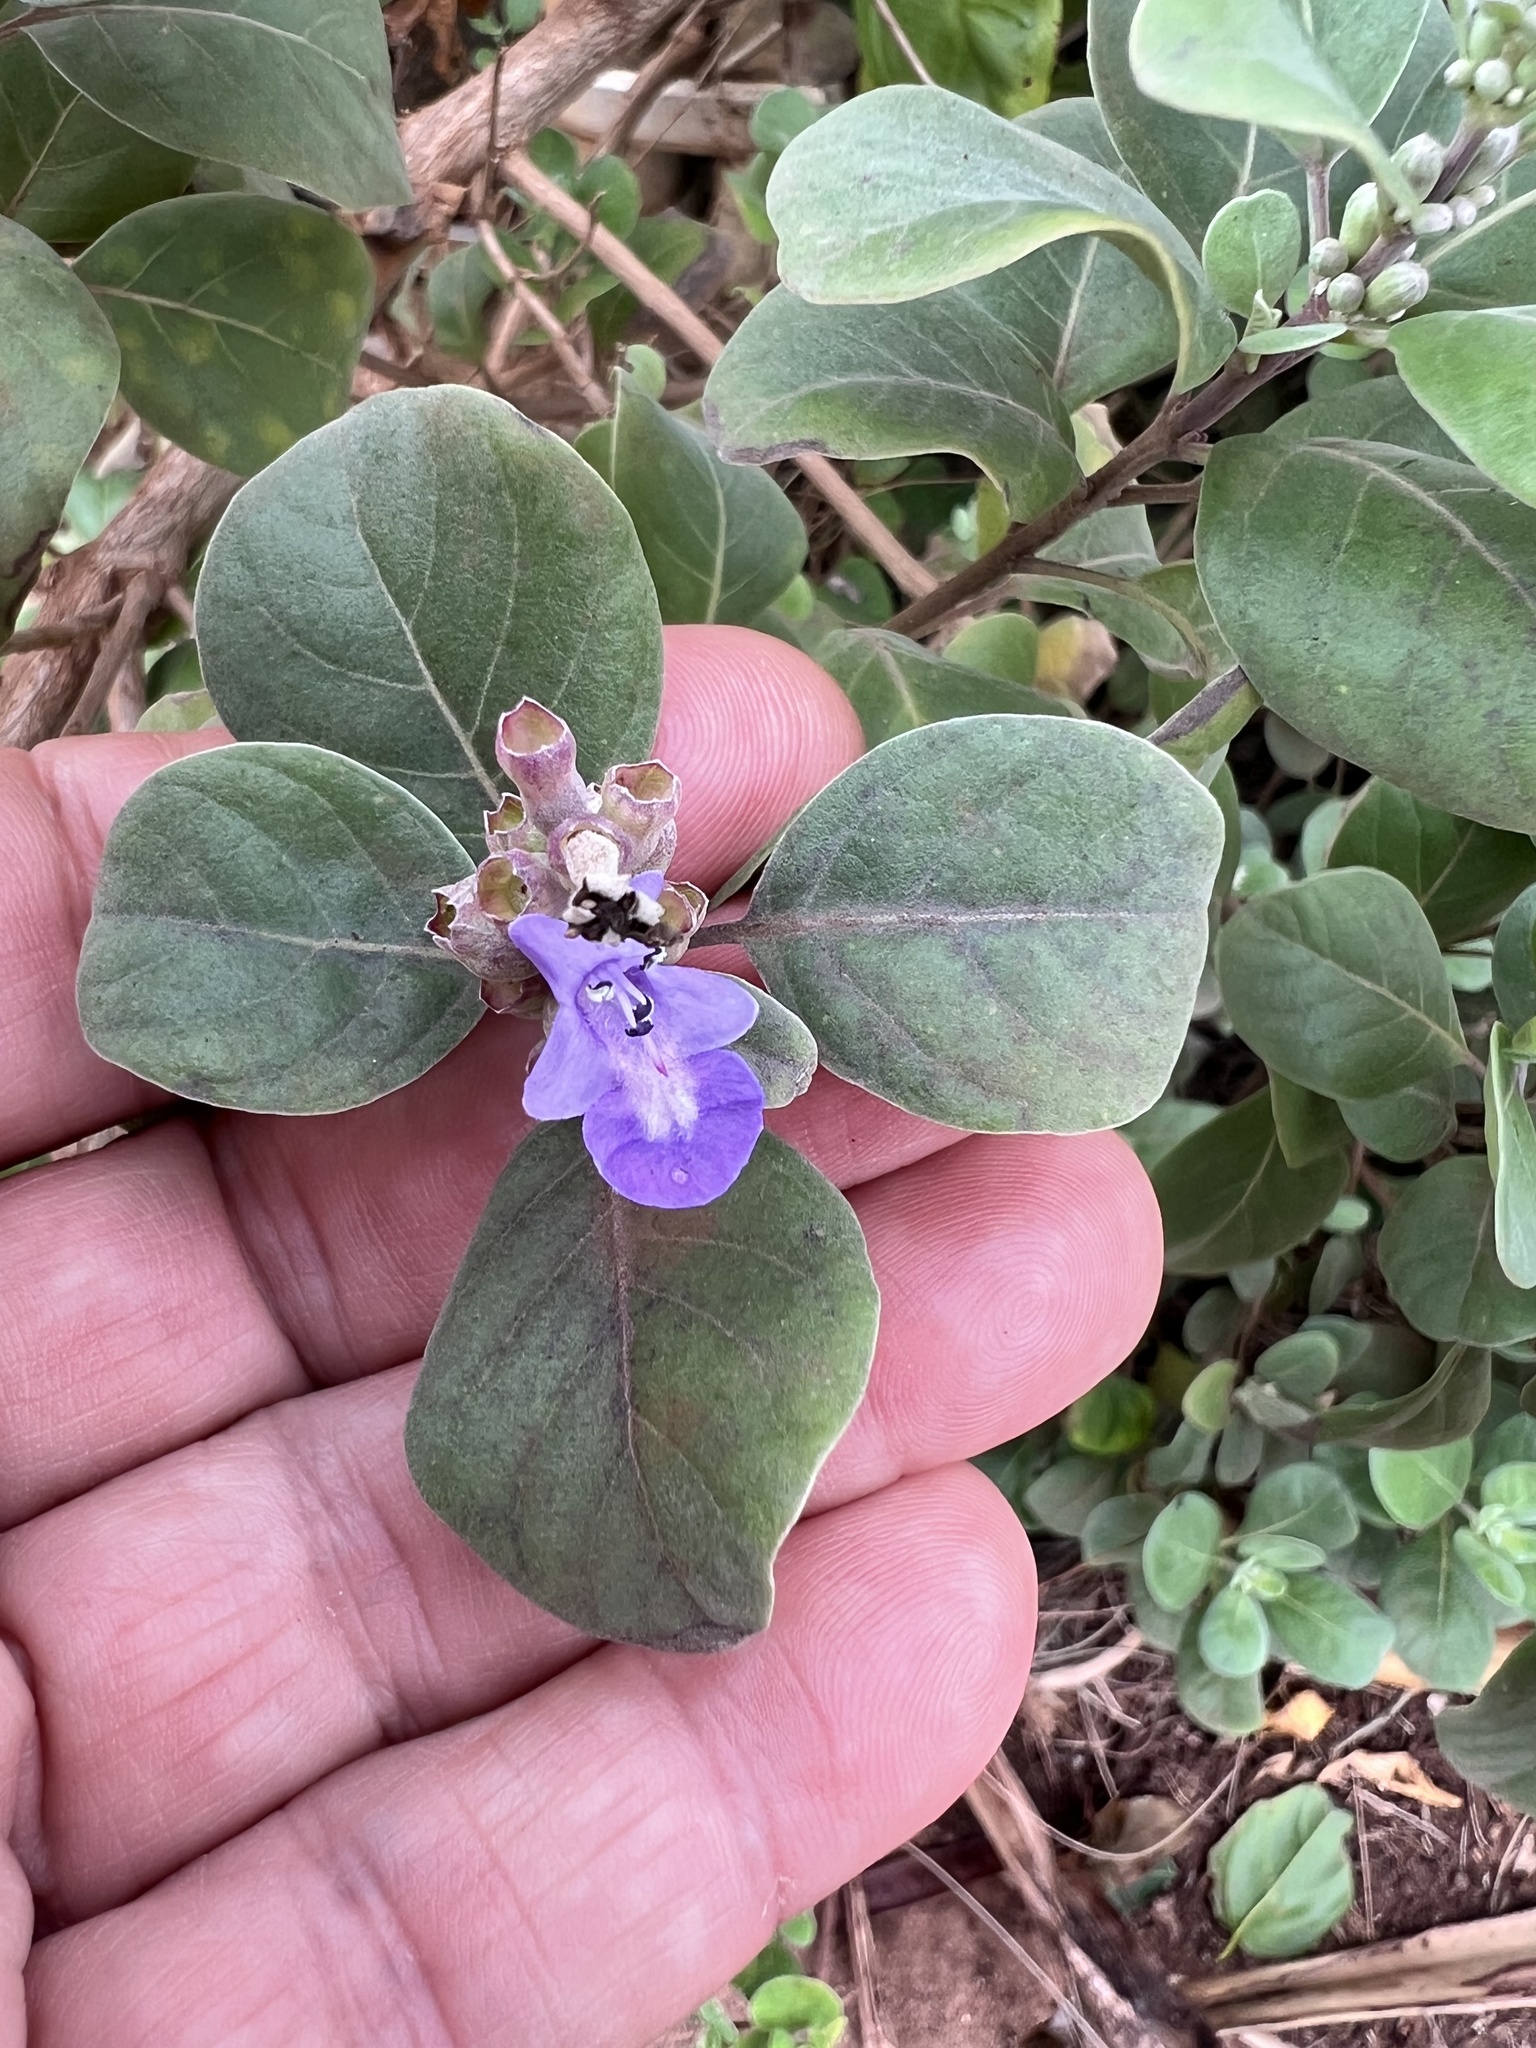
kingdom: Plantae
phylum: Tracheophyta
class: Magnoliopsida
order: Lamiales
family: Lamiaceae
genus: Vitex
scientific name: Vitex rotundifolia
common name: Beach vitex
